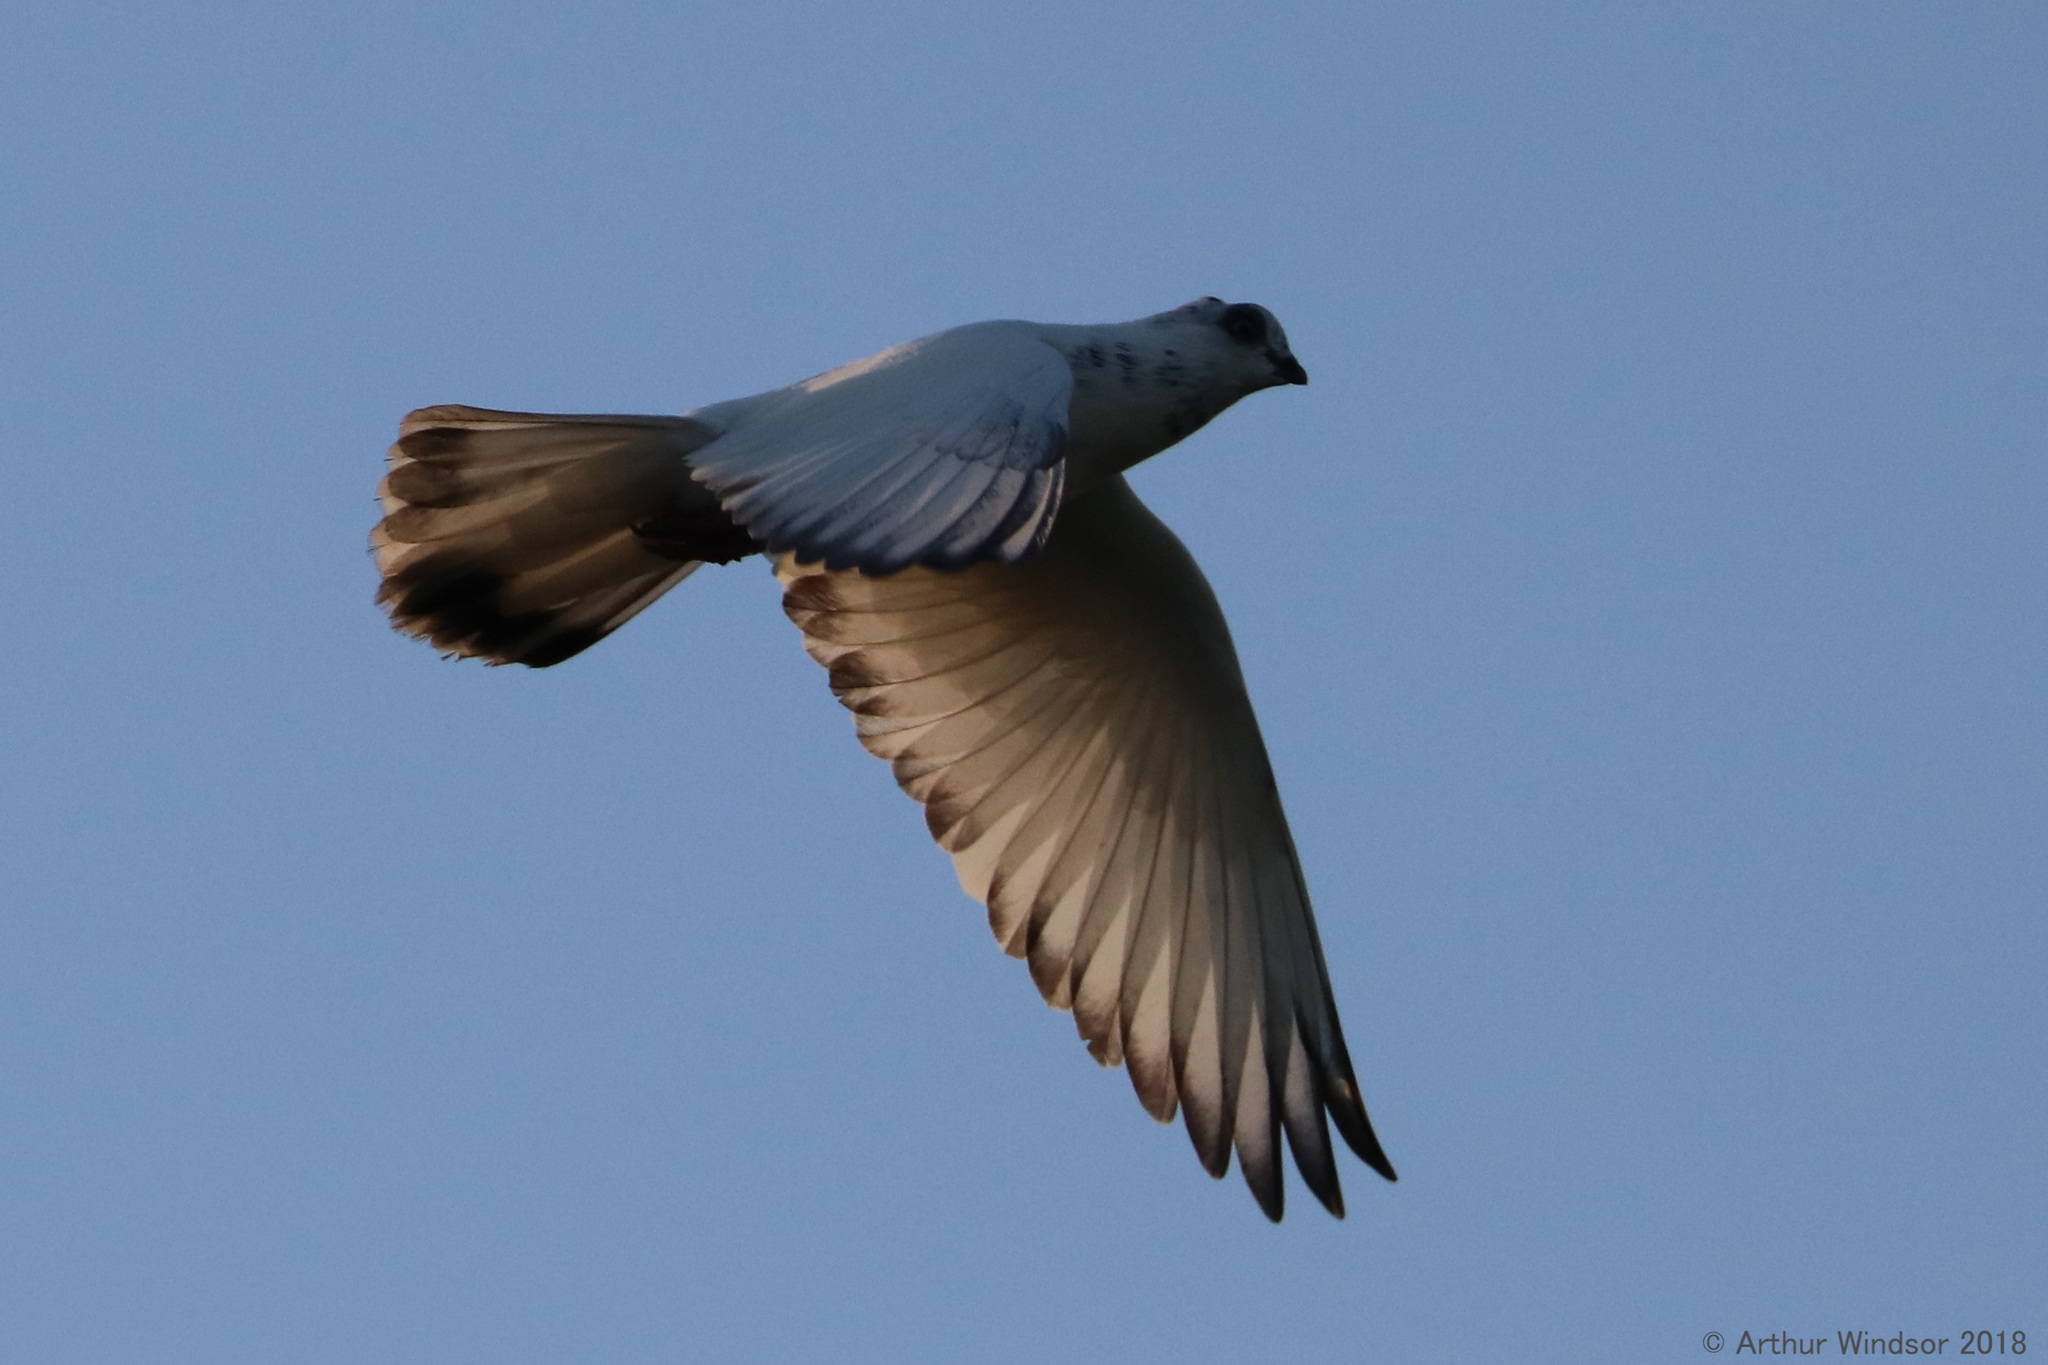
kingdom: Animalia
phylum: Chordata
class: Aves
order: Columbiformes
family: Columbidae
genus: Columba
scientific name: Columba livia
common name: Rock pigeon
